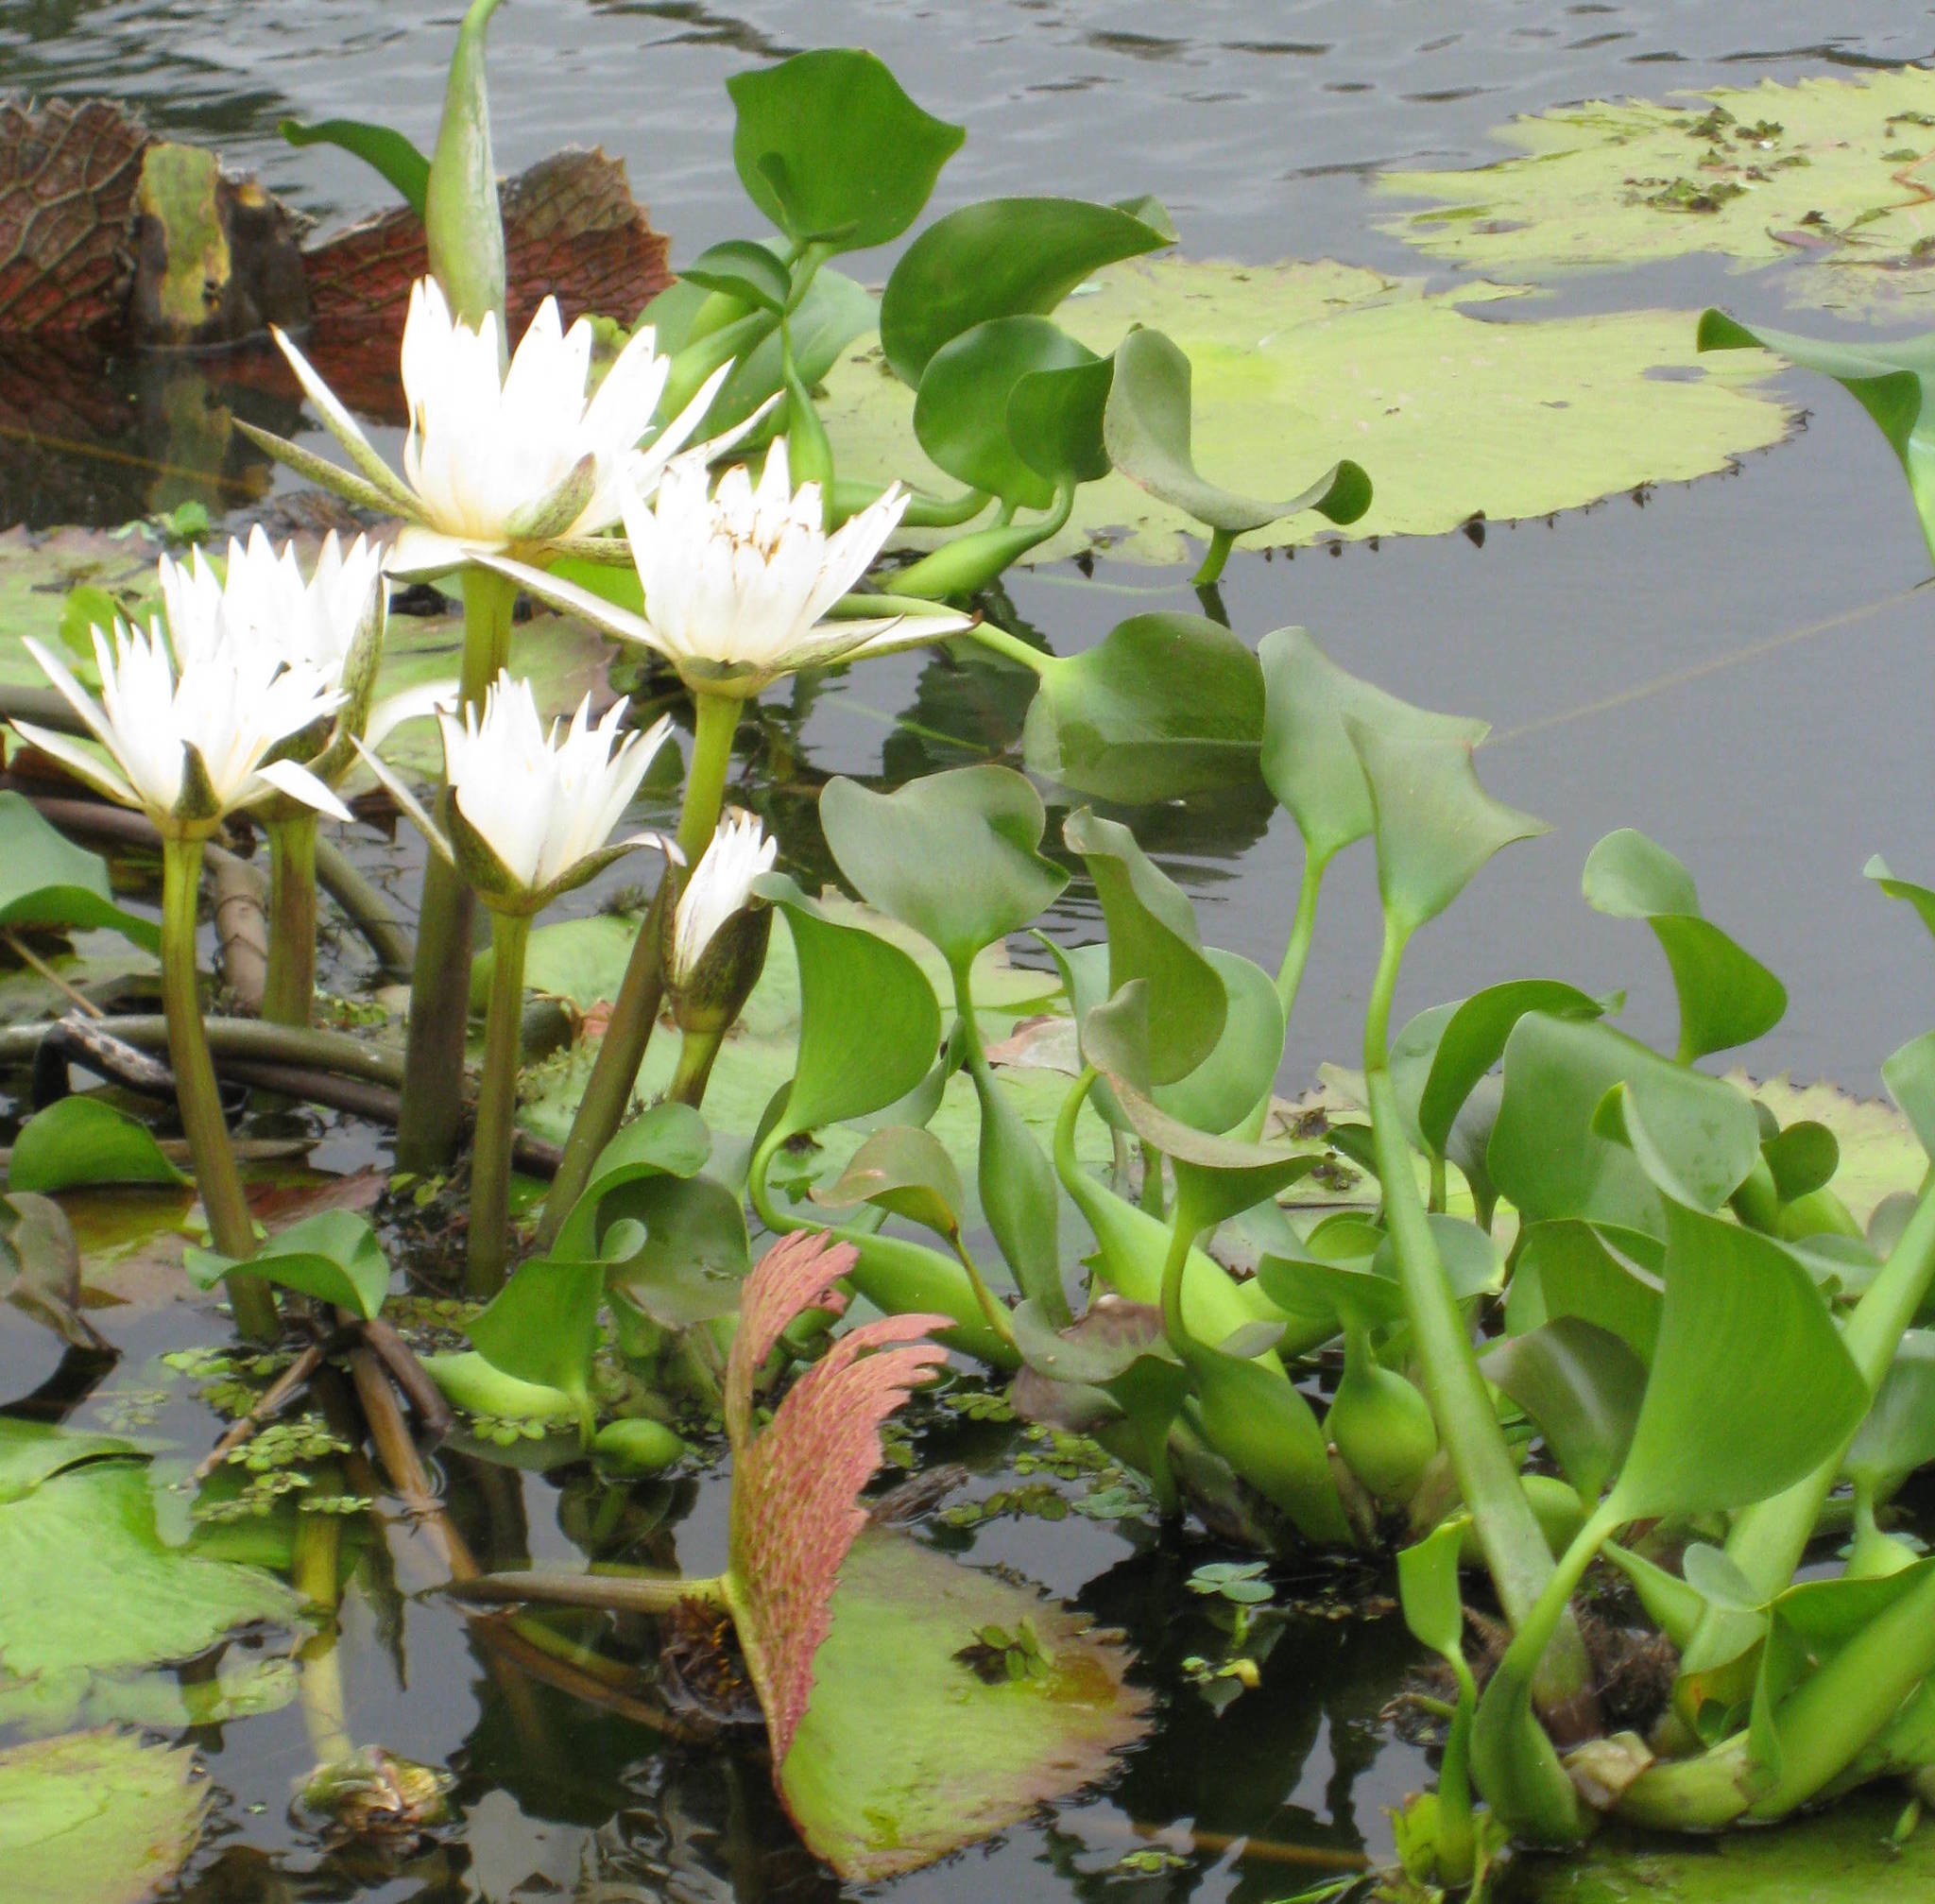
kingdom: Plantae
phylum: Tracheophyta
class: Magnoliopsida
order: Nymphaeales
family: Nymphaeaceae
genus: Nymphaea
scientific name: Nymphaea ampla
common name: Dotleaf waterlily
